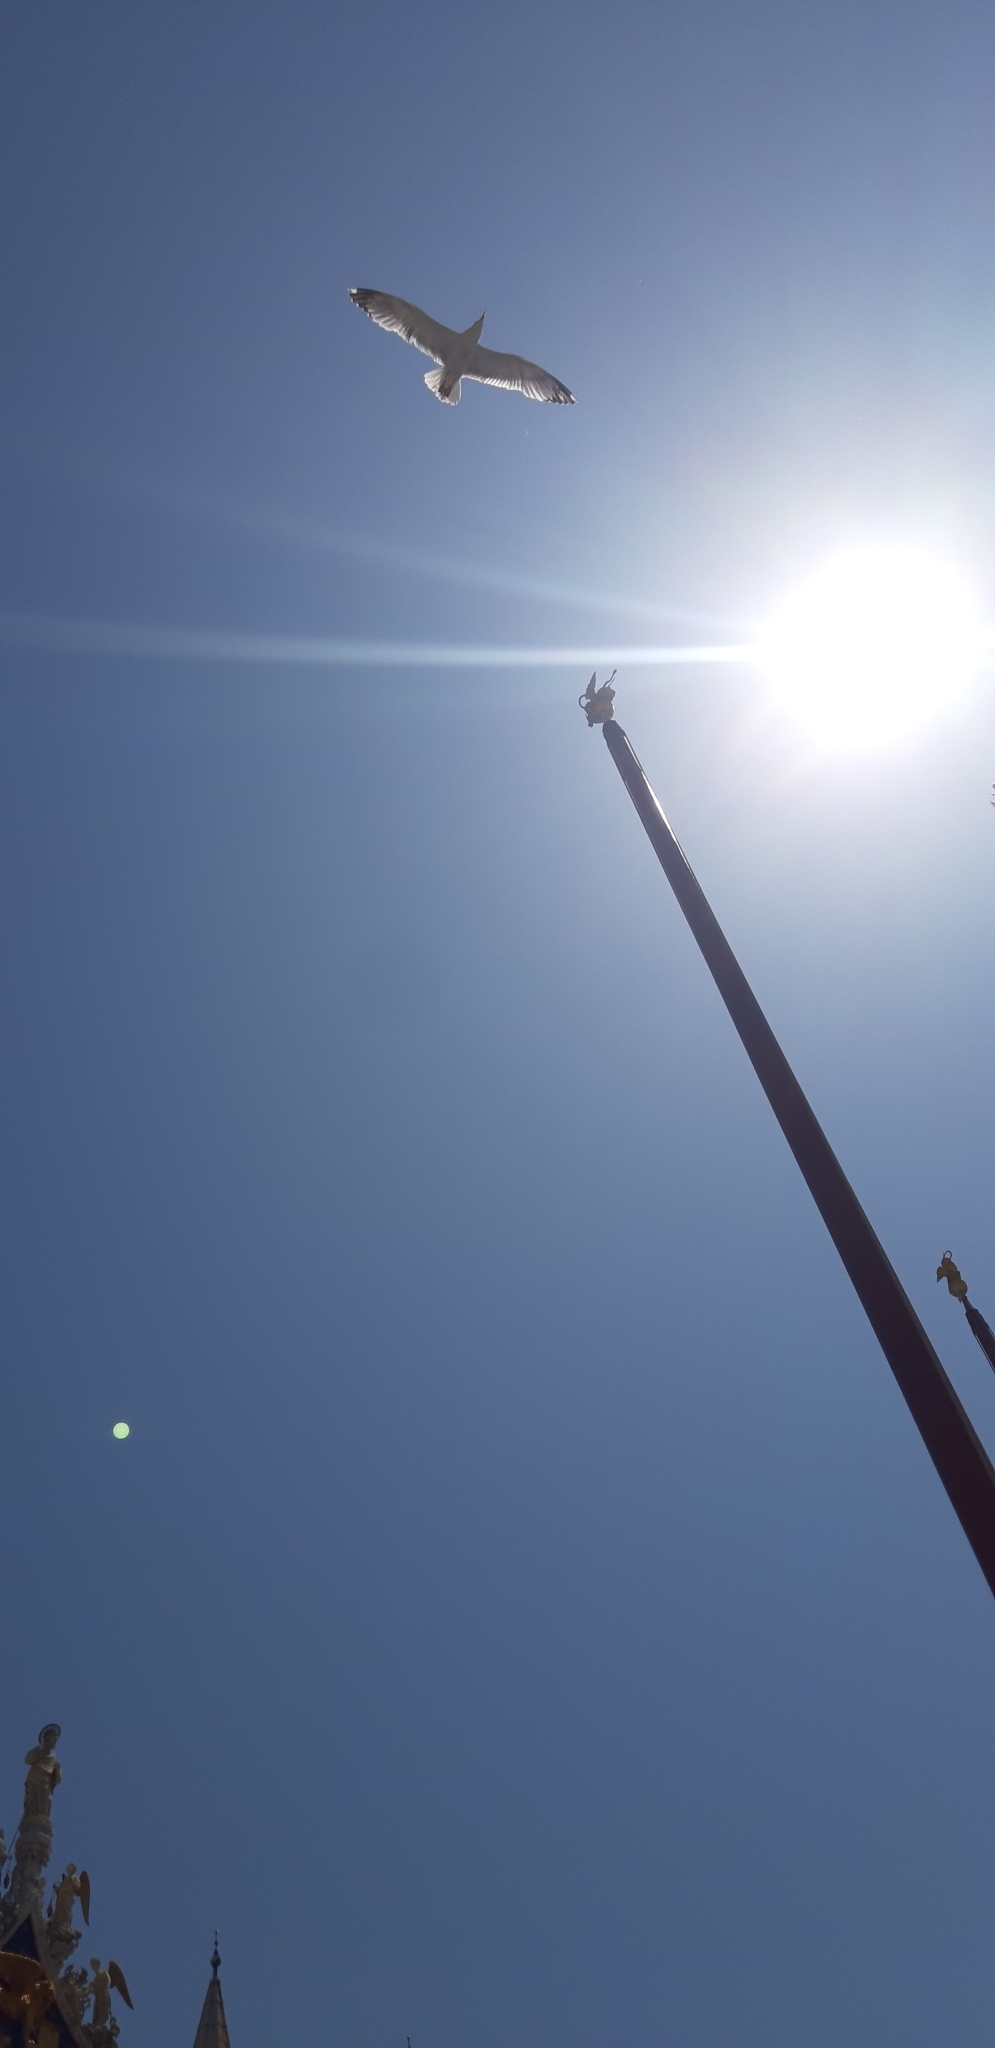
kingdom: Animalia
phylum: Chordata
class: Aves
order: Charadriiformes
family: Laridae
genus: Larus
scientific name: Larus michahellis
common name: Yellow-legged gull
